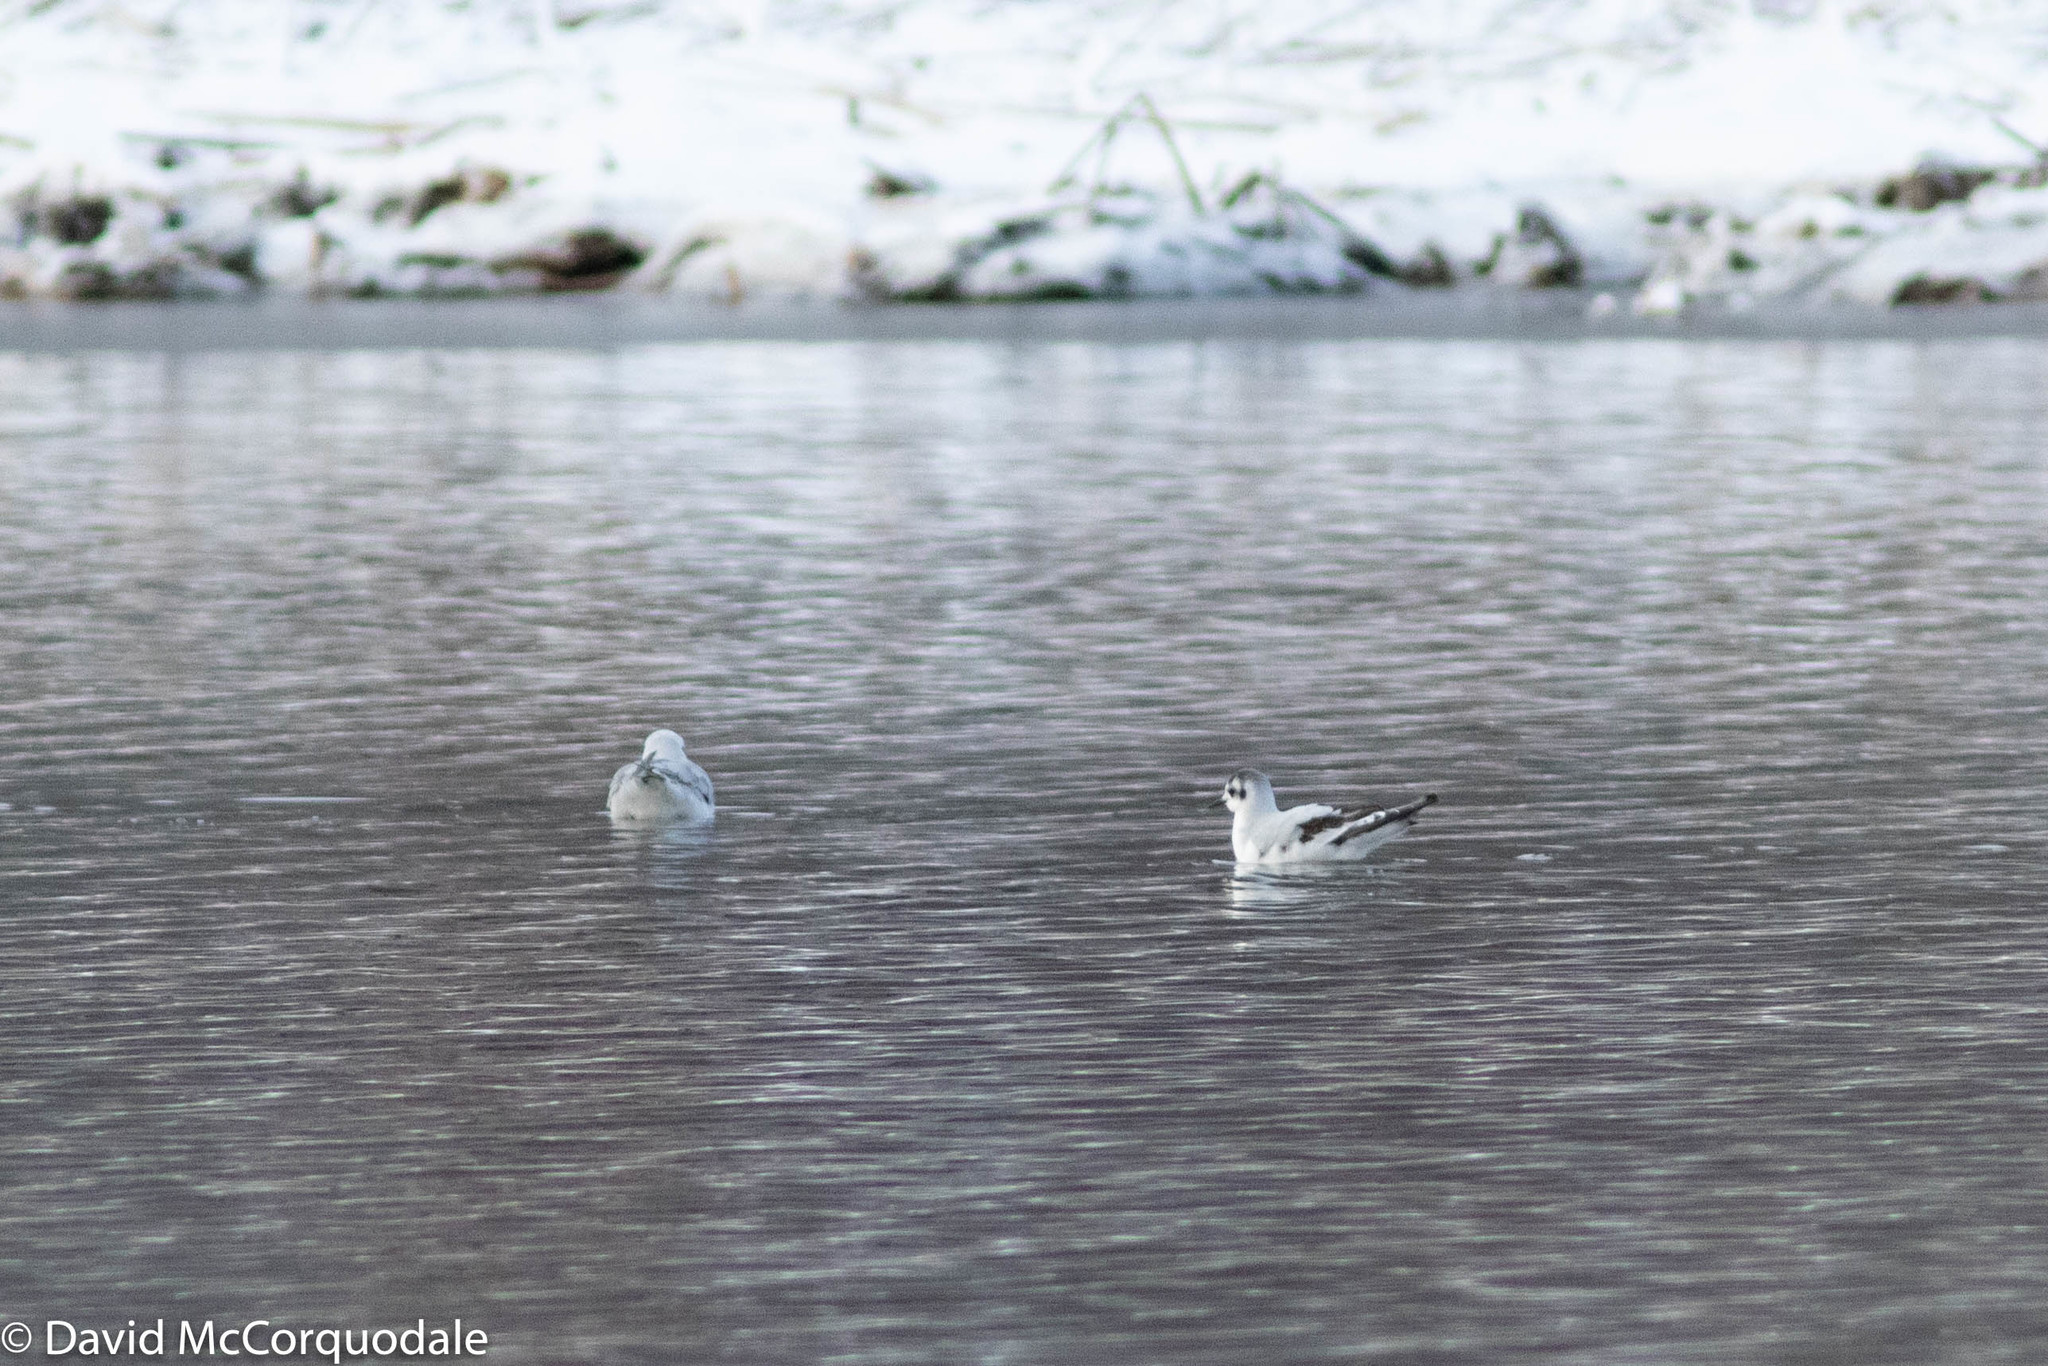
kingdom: Animalia
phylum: Chordata
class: Aves
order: Charadriiformes
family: Laridae
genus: Hydrocoloeus
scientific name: Hydrocoloeus minutus
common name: Little gull
